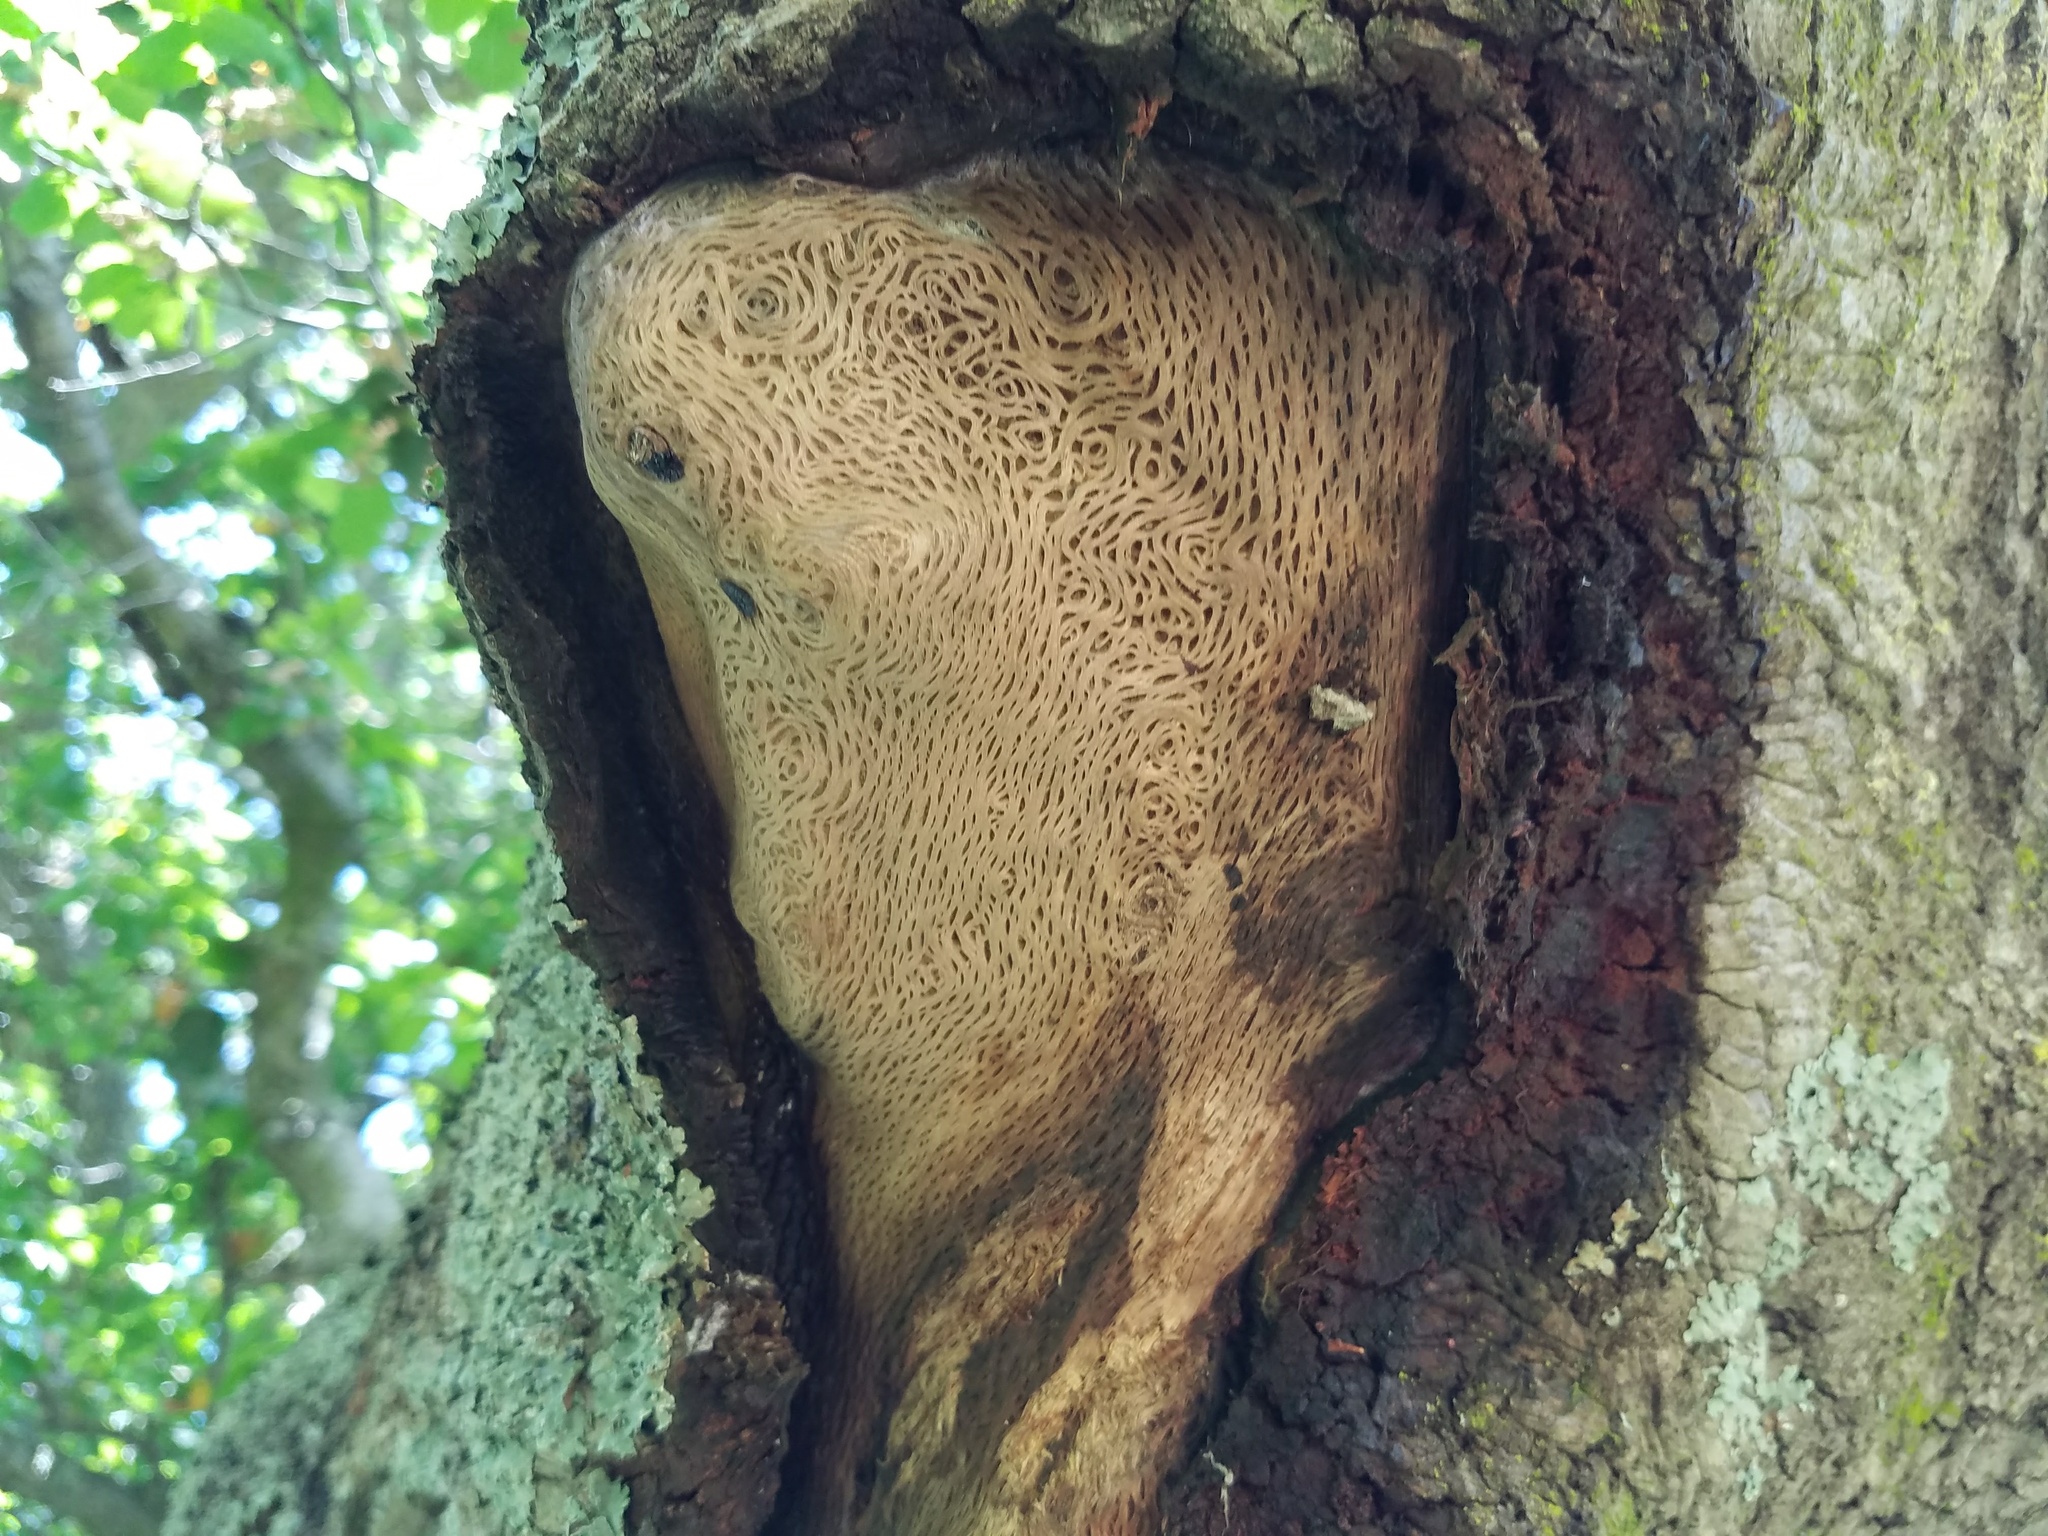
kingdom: Chromista
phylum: Oomycota
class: Peronosporea
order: Peronosporales
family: Peronosporaceae
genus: Phytophthora
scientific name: Phytophthora ramorum
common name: Sudden oak death
